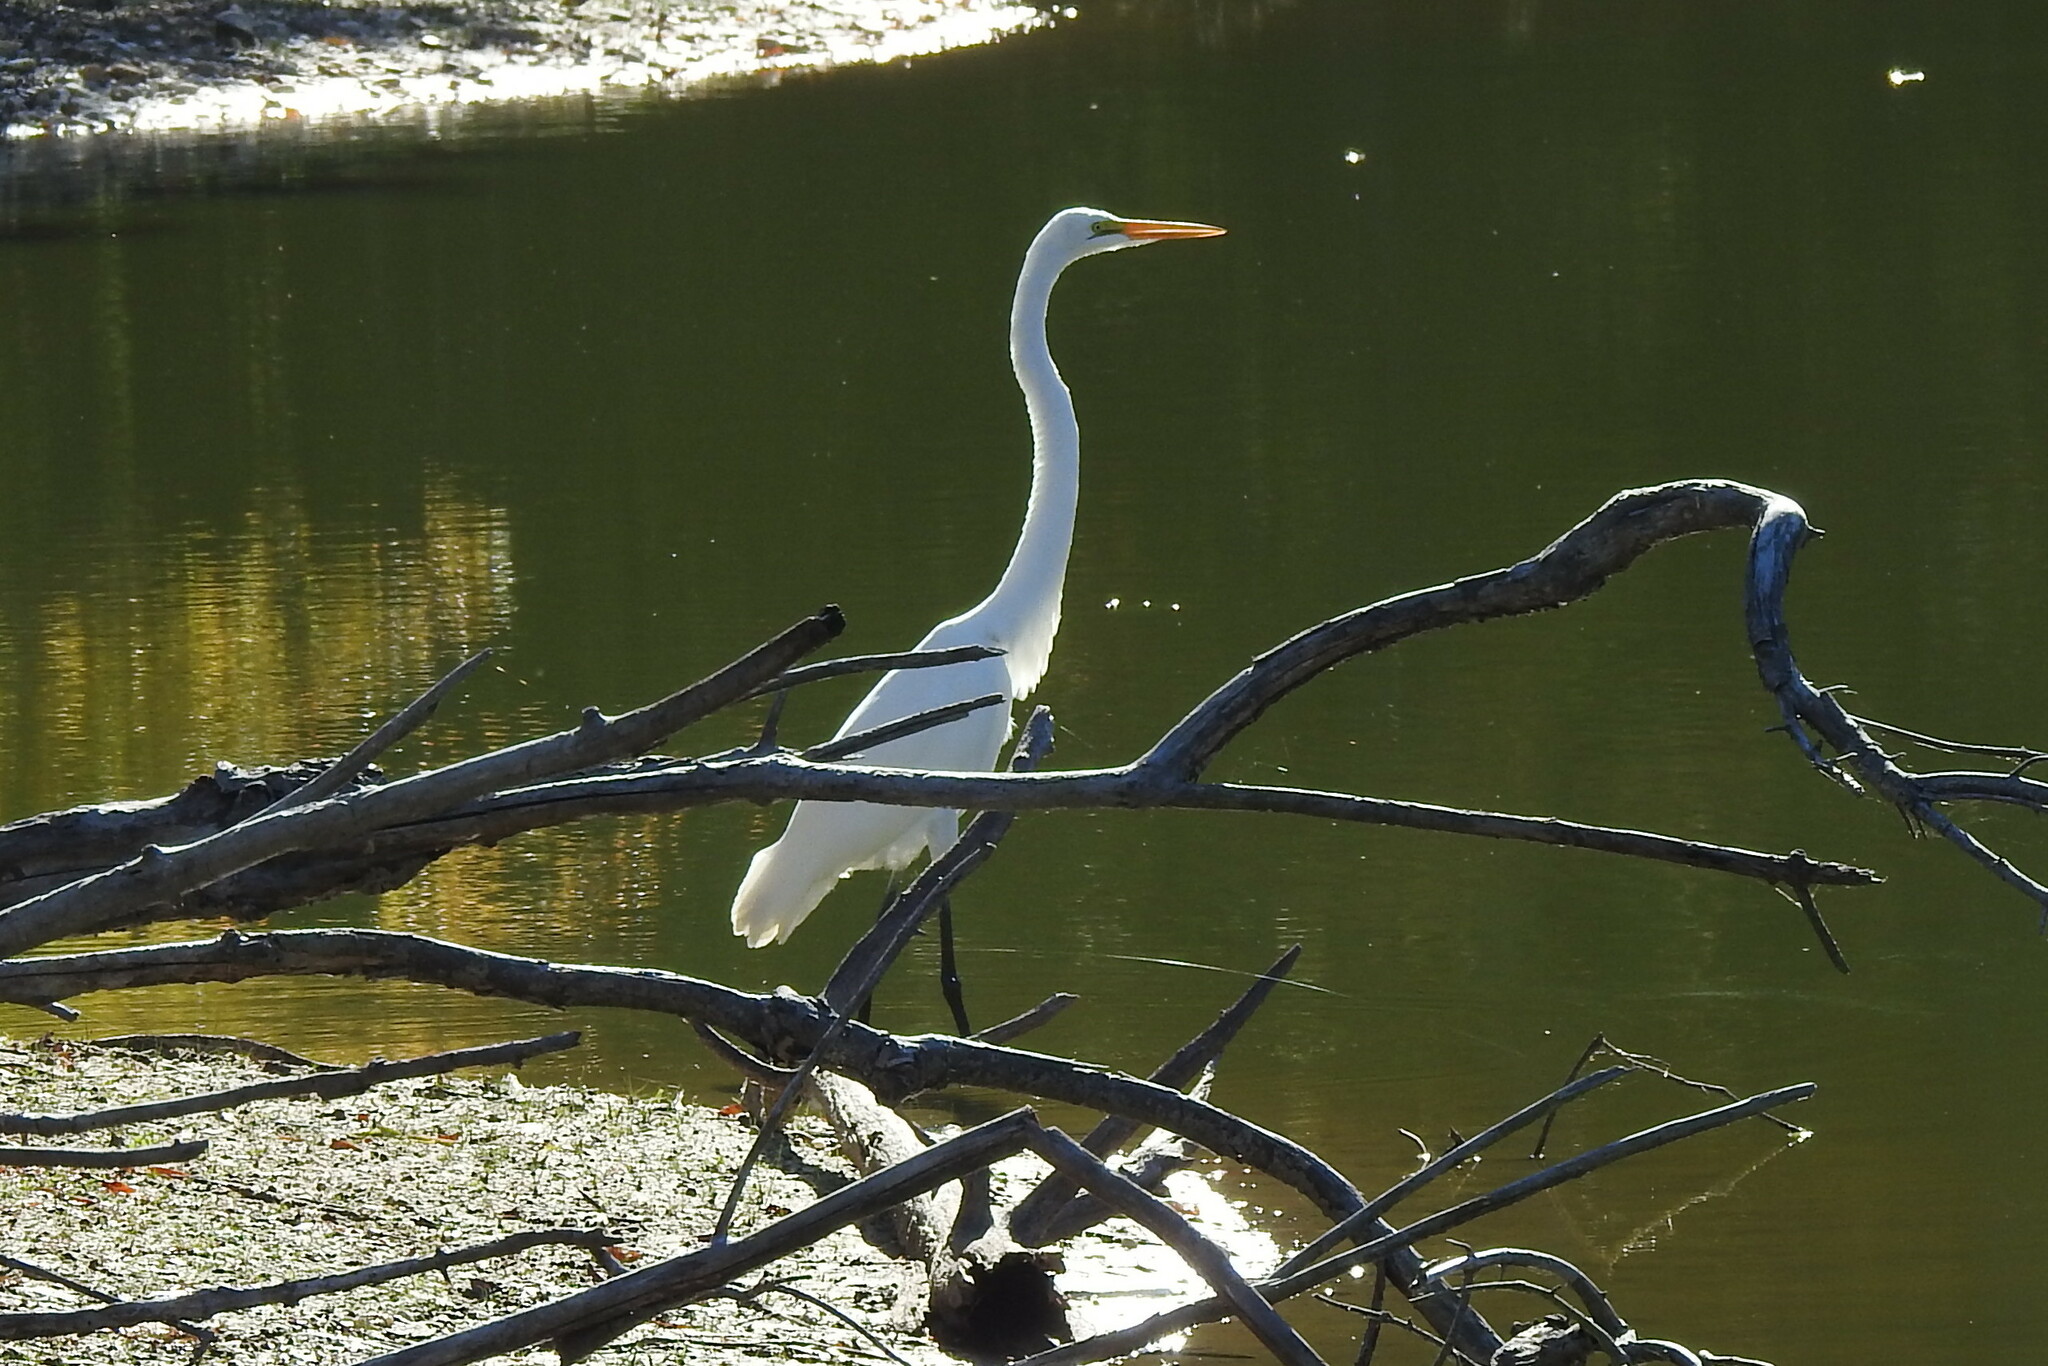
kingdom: Animalia
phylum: Chordata
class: Aves
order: Pelecaniformes
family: Ardeidae
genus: Ardea
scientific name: Ardea alba
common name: Great egret
